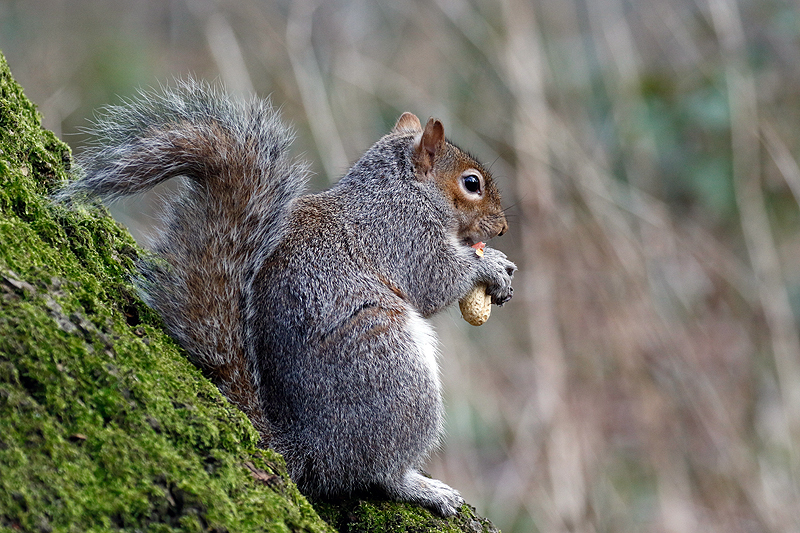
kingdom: Animalia
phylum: Chordata
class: Mammalia
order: Rodentia
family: Sciuridae
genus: Sciurus
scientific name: Sciurus carolinensis
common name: Eastern gray squirrel
